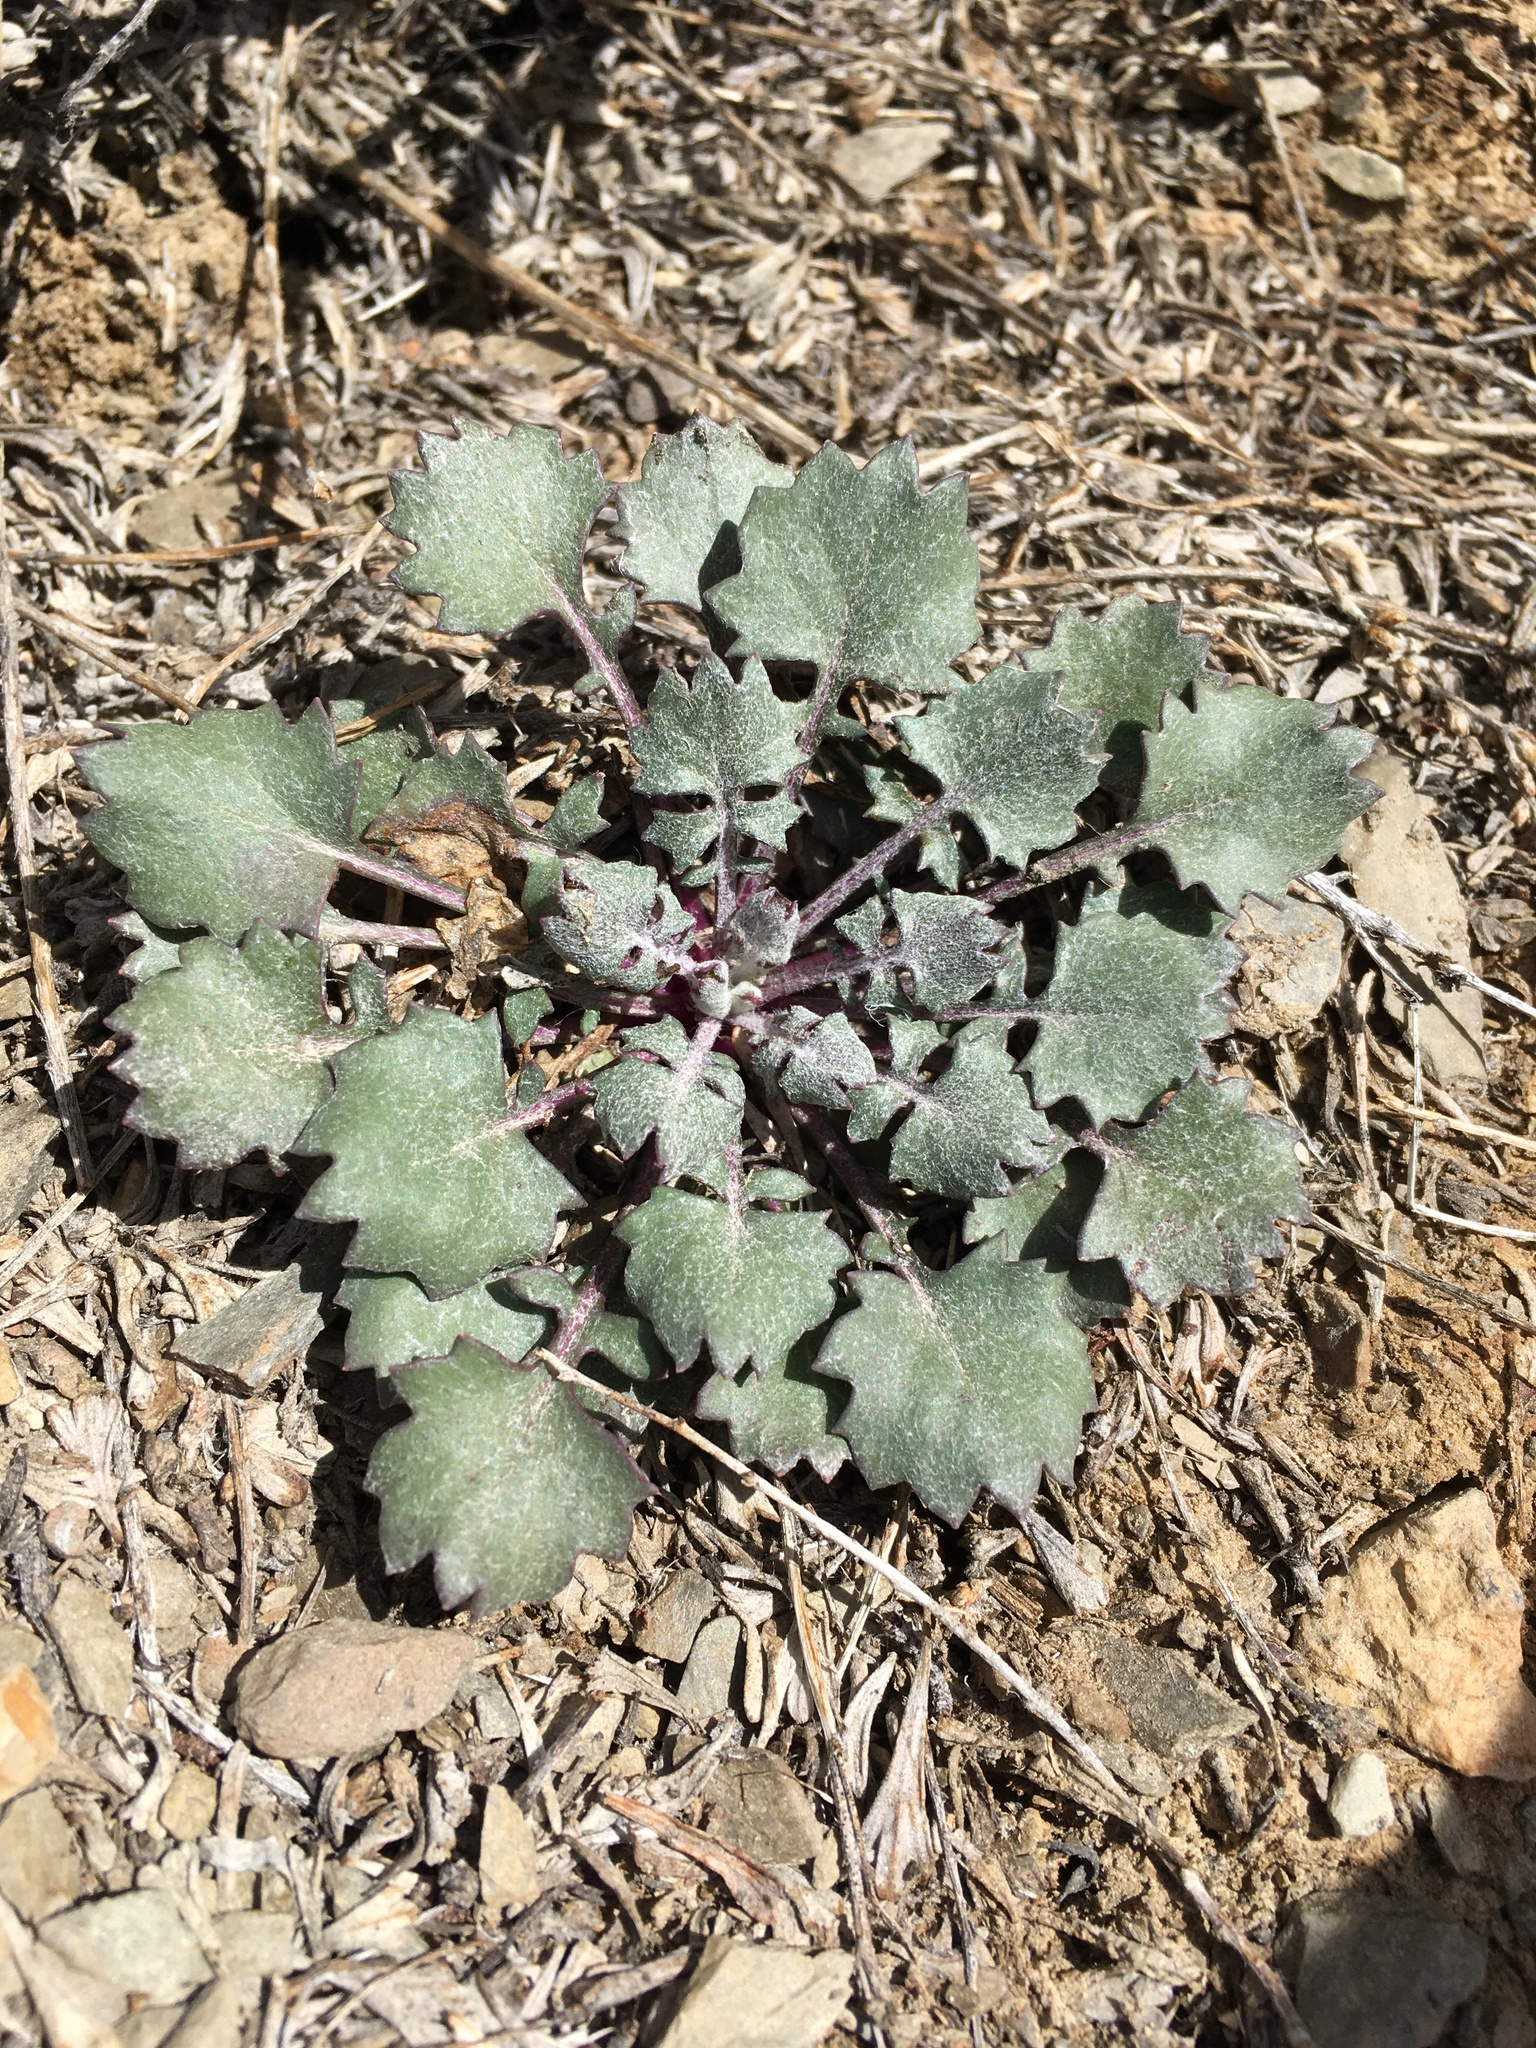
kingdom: Plantae
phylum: Tracheophyta
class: Magnoliopsida
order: Asterales
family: Asteraceae
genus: Packera
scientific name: Packera multilobata
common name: Lobe-leaf groundsel
